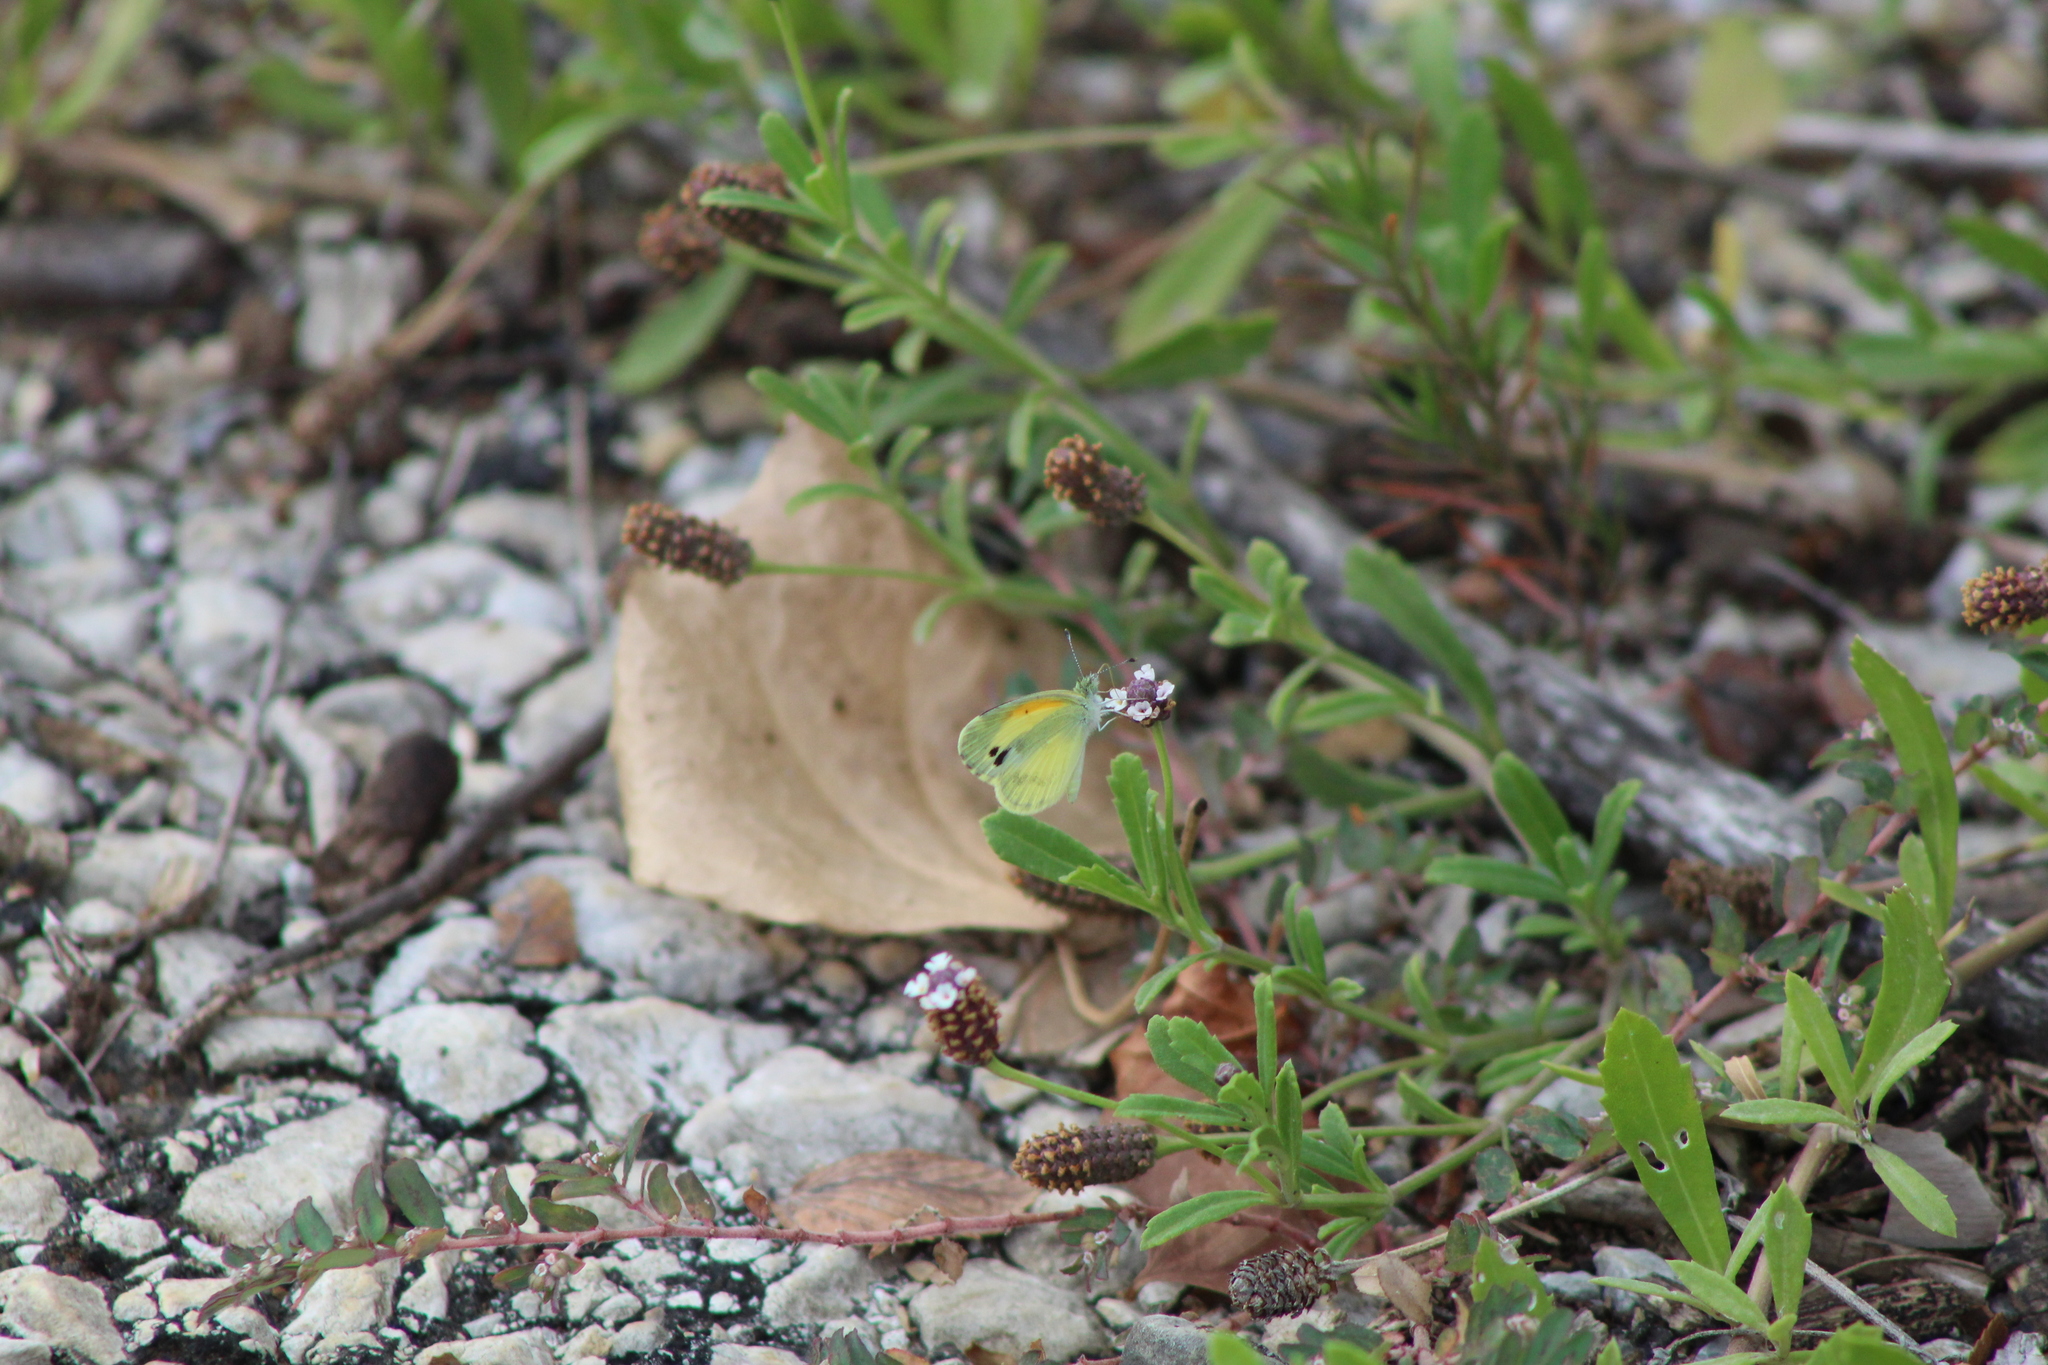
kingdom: Animalia
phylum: Arthropoda
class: Insecta
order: Lepidoptera
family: Pieridae
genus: Nathalis
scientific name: Nathalis iole
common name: Dainty sulphur
